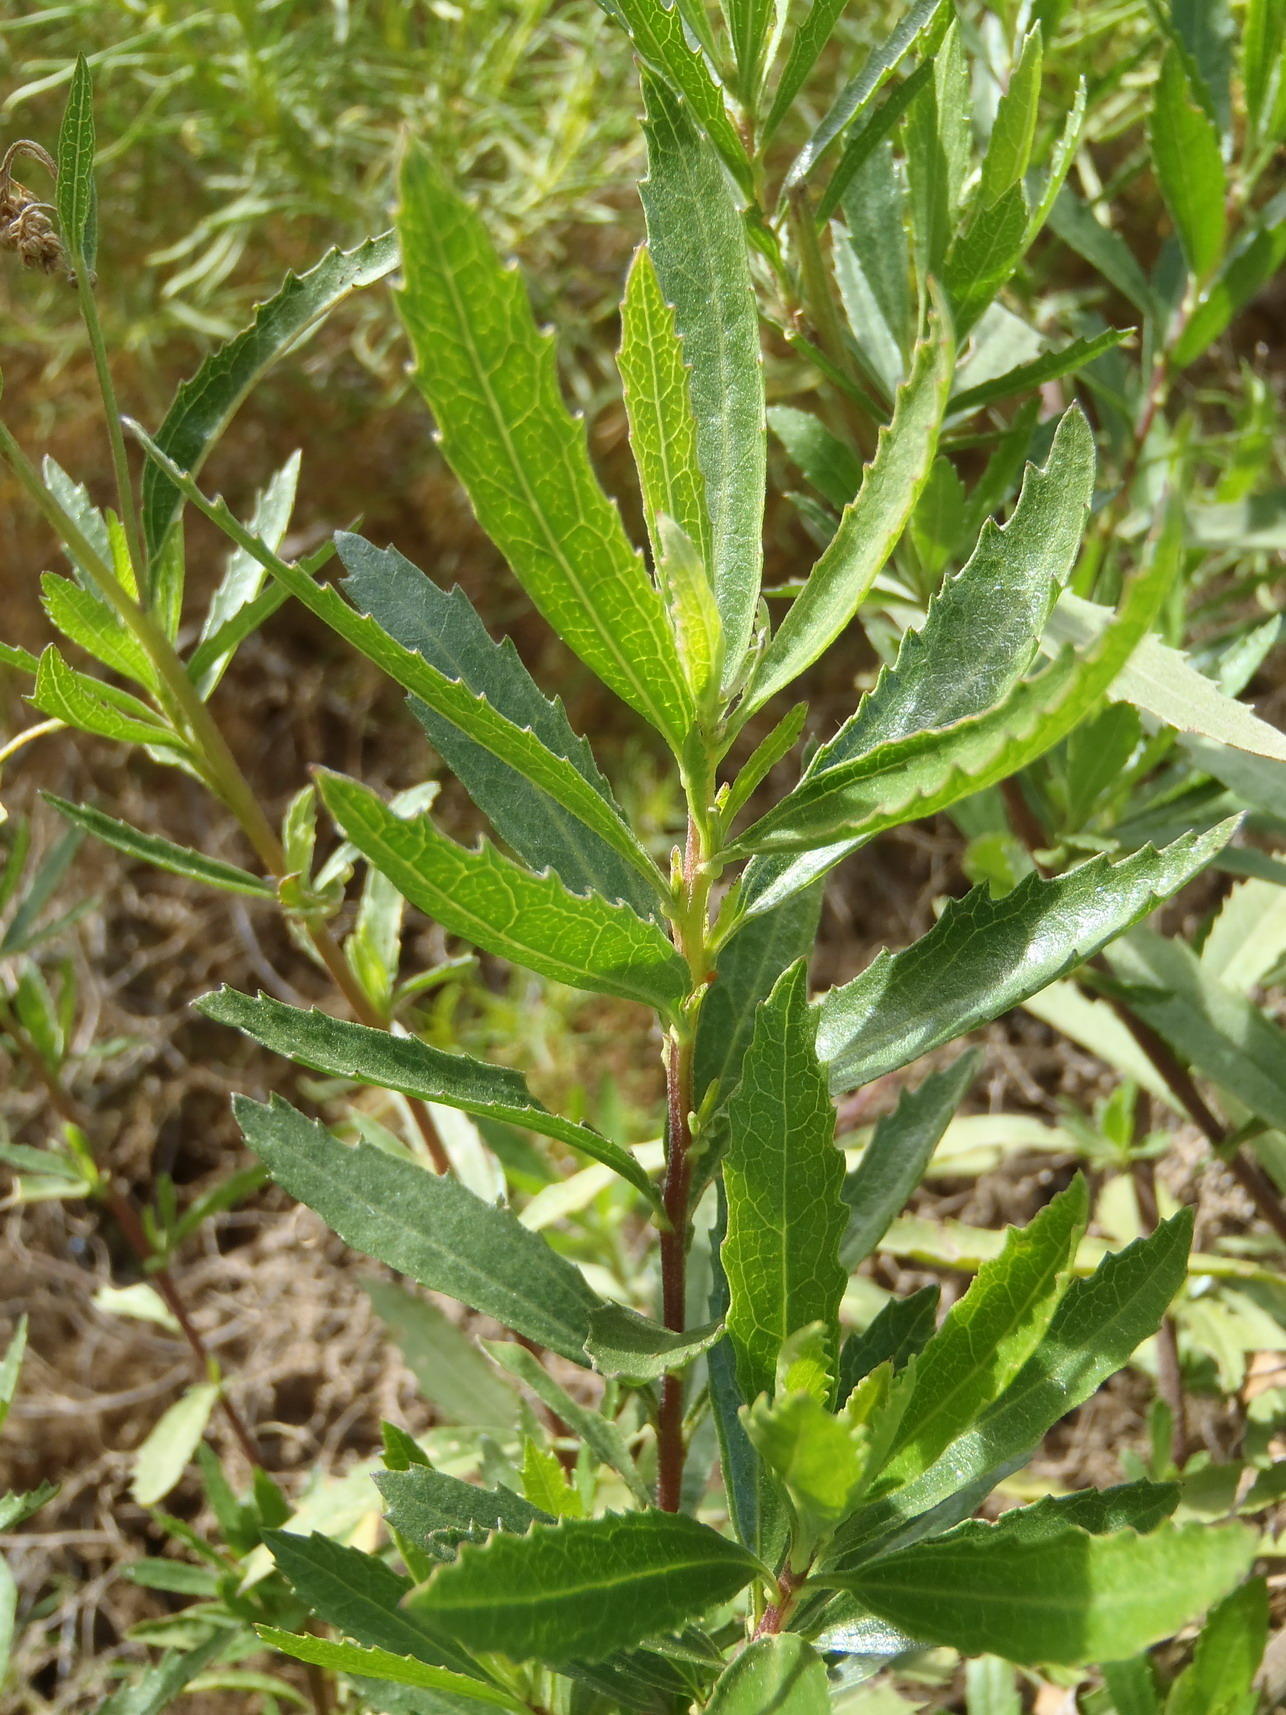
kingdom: Plantae
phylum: Tracheophyta
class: Magnoliopsida
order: Asterales
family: Asteraceae
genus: Nidorella
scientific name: Nidorella ivifolia
